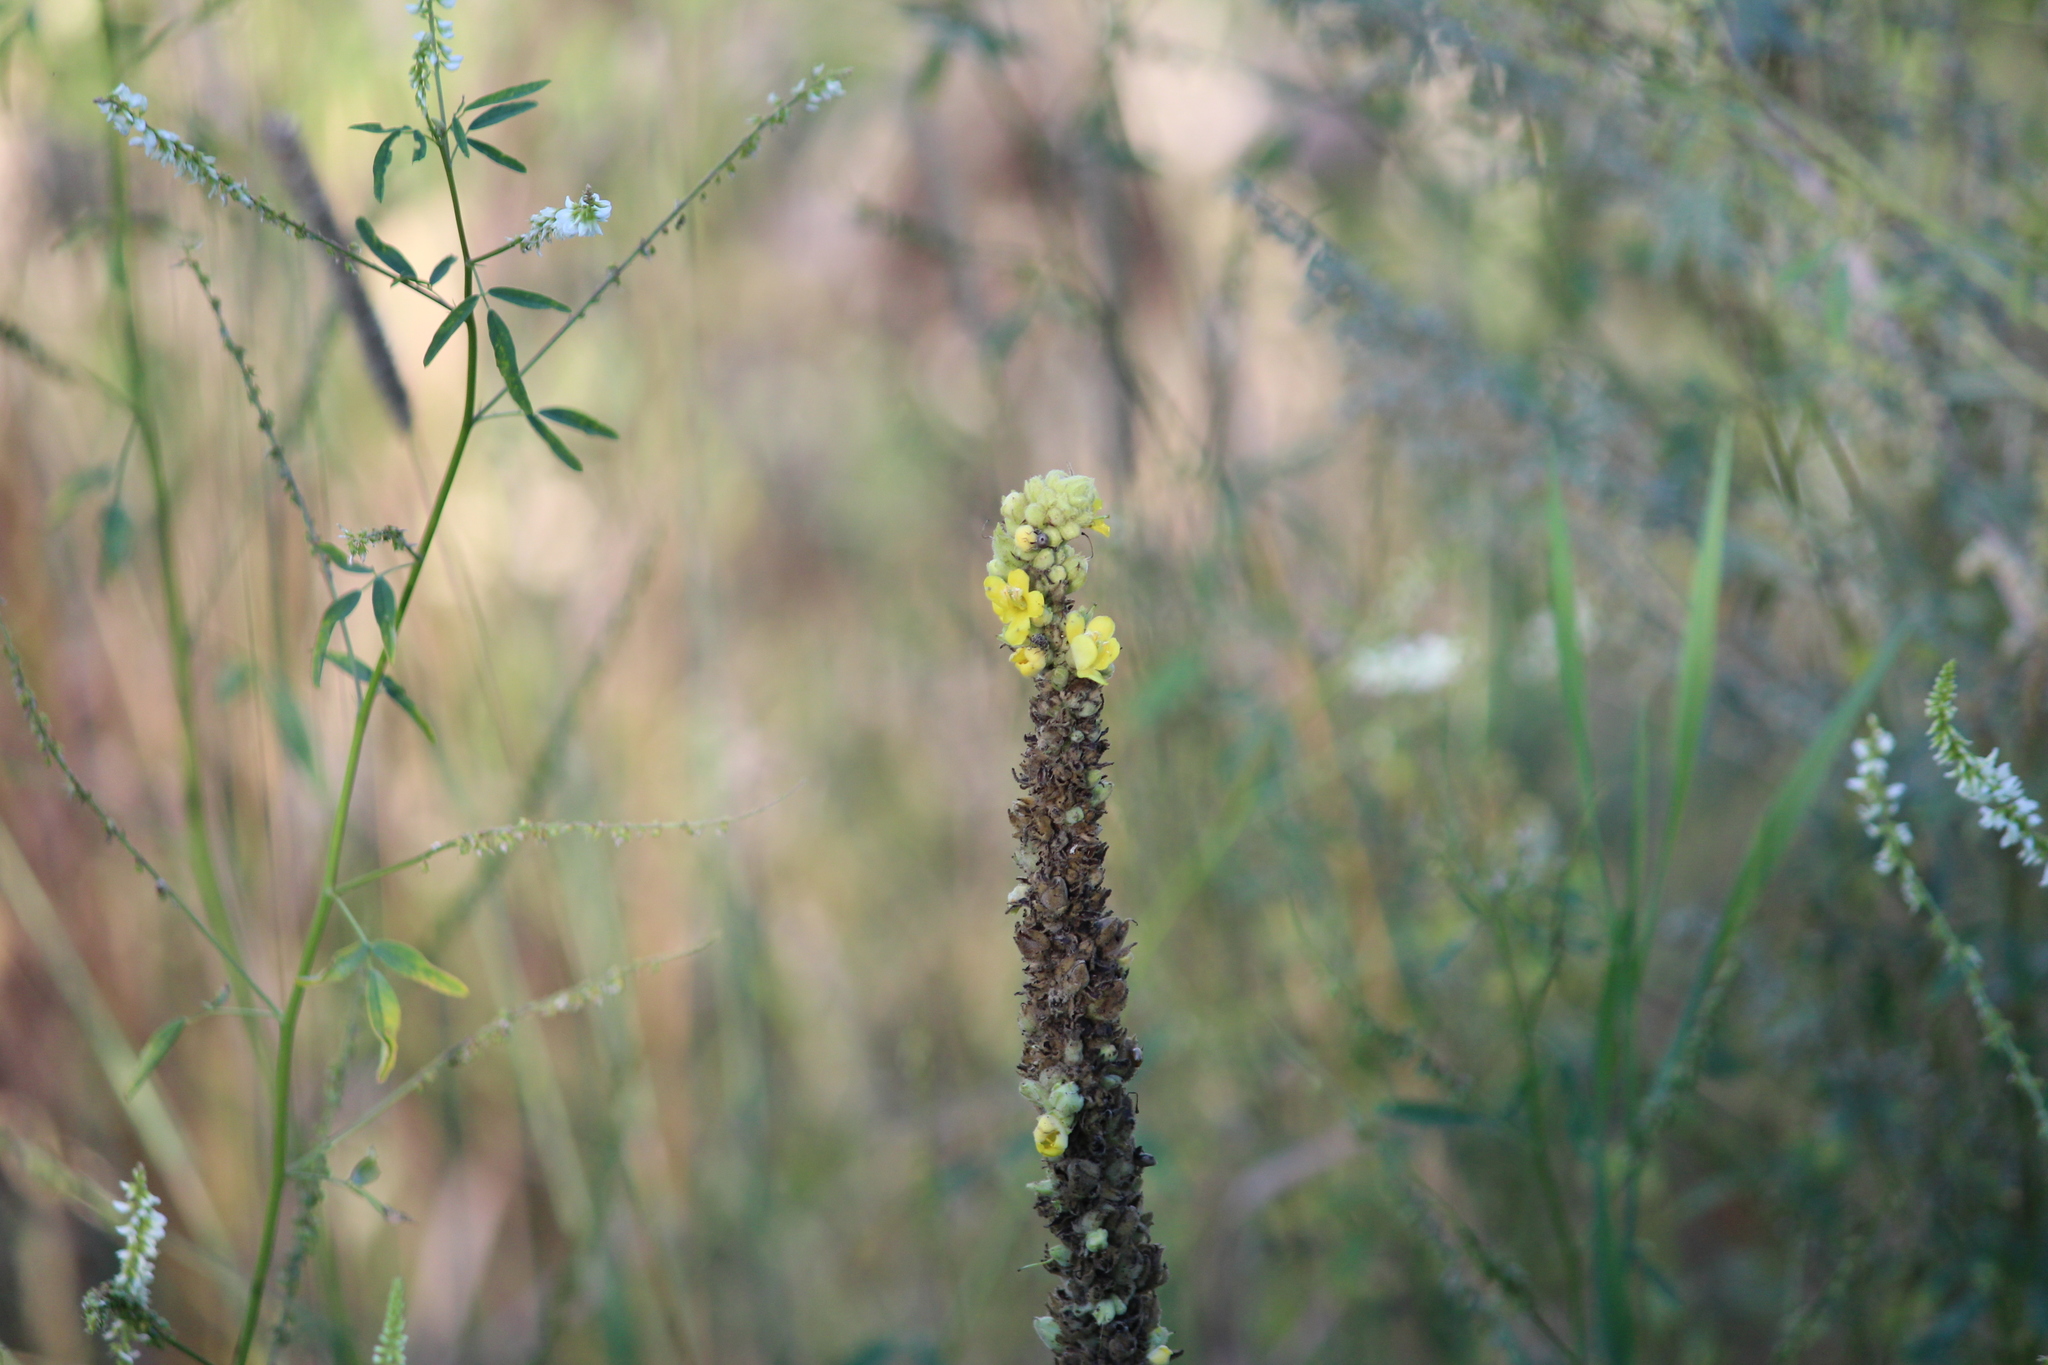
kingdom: Plantae
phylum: Tracheophyta
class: Magnoliopsida
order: Lamiales
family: Scrophulariaceae
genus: Verbascum
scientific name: Verbascum thapsus
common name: Common mullein
